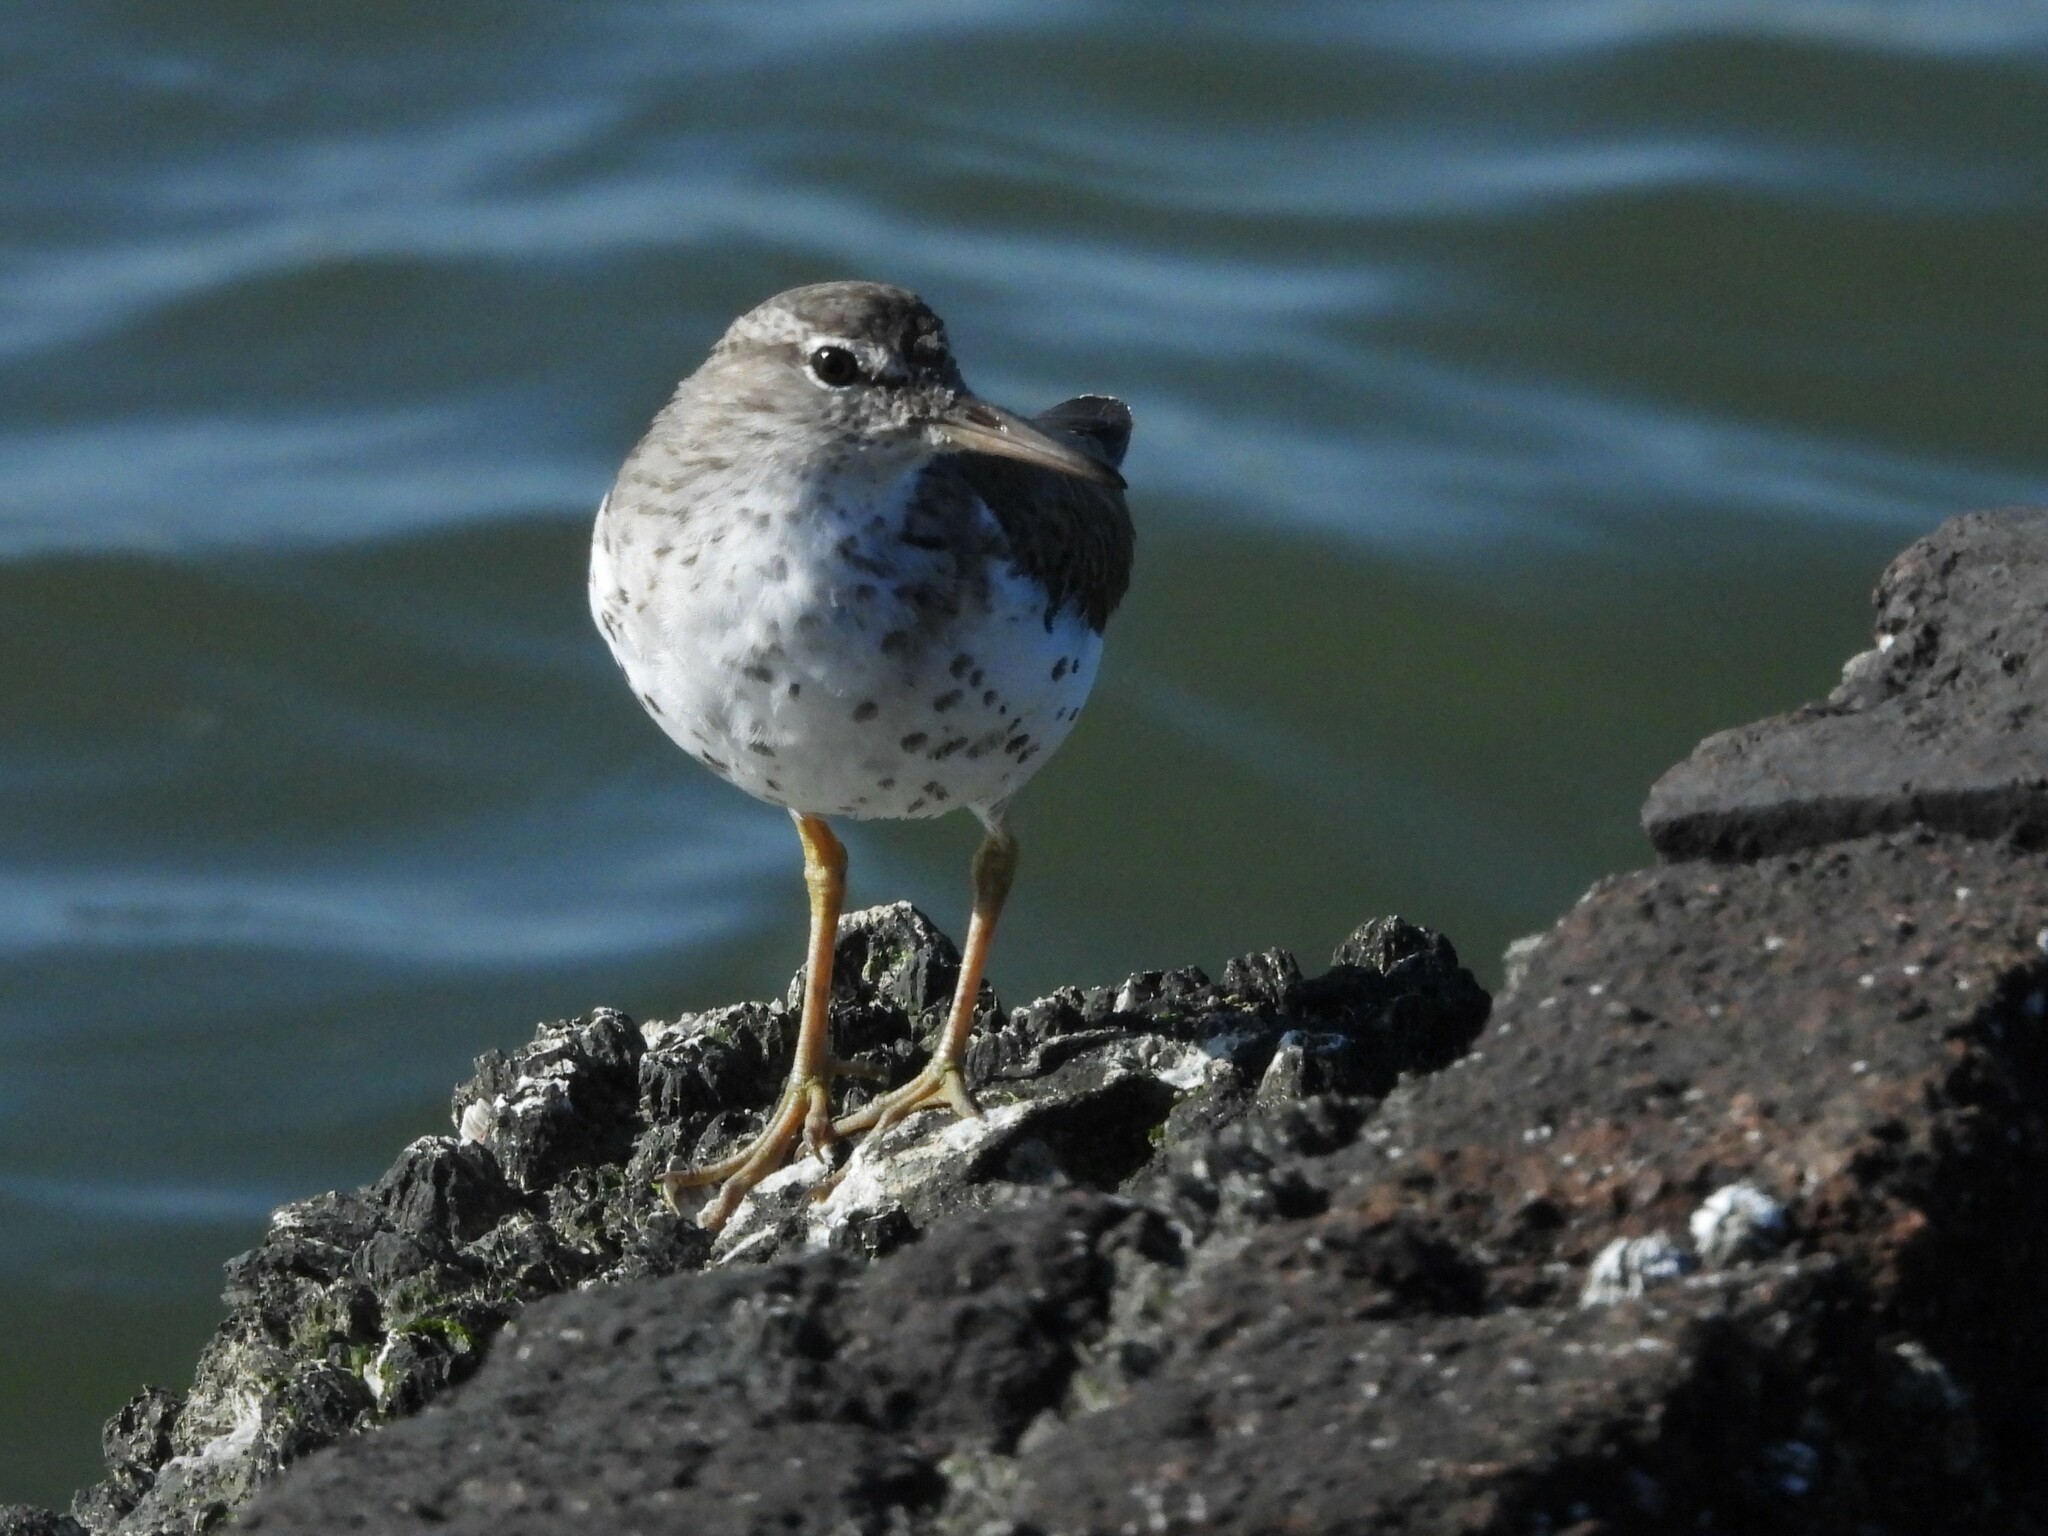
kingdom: Animalia
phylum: Chordata
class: Aves
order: Charadriiformes
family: Scolopacidae
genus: Actitis
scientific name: Actitis macularius
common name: Spotted sandpiper
